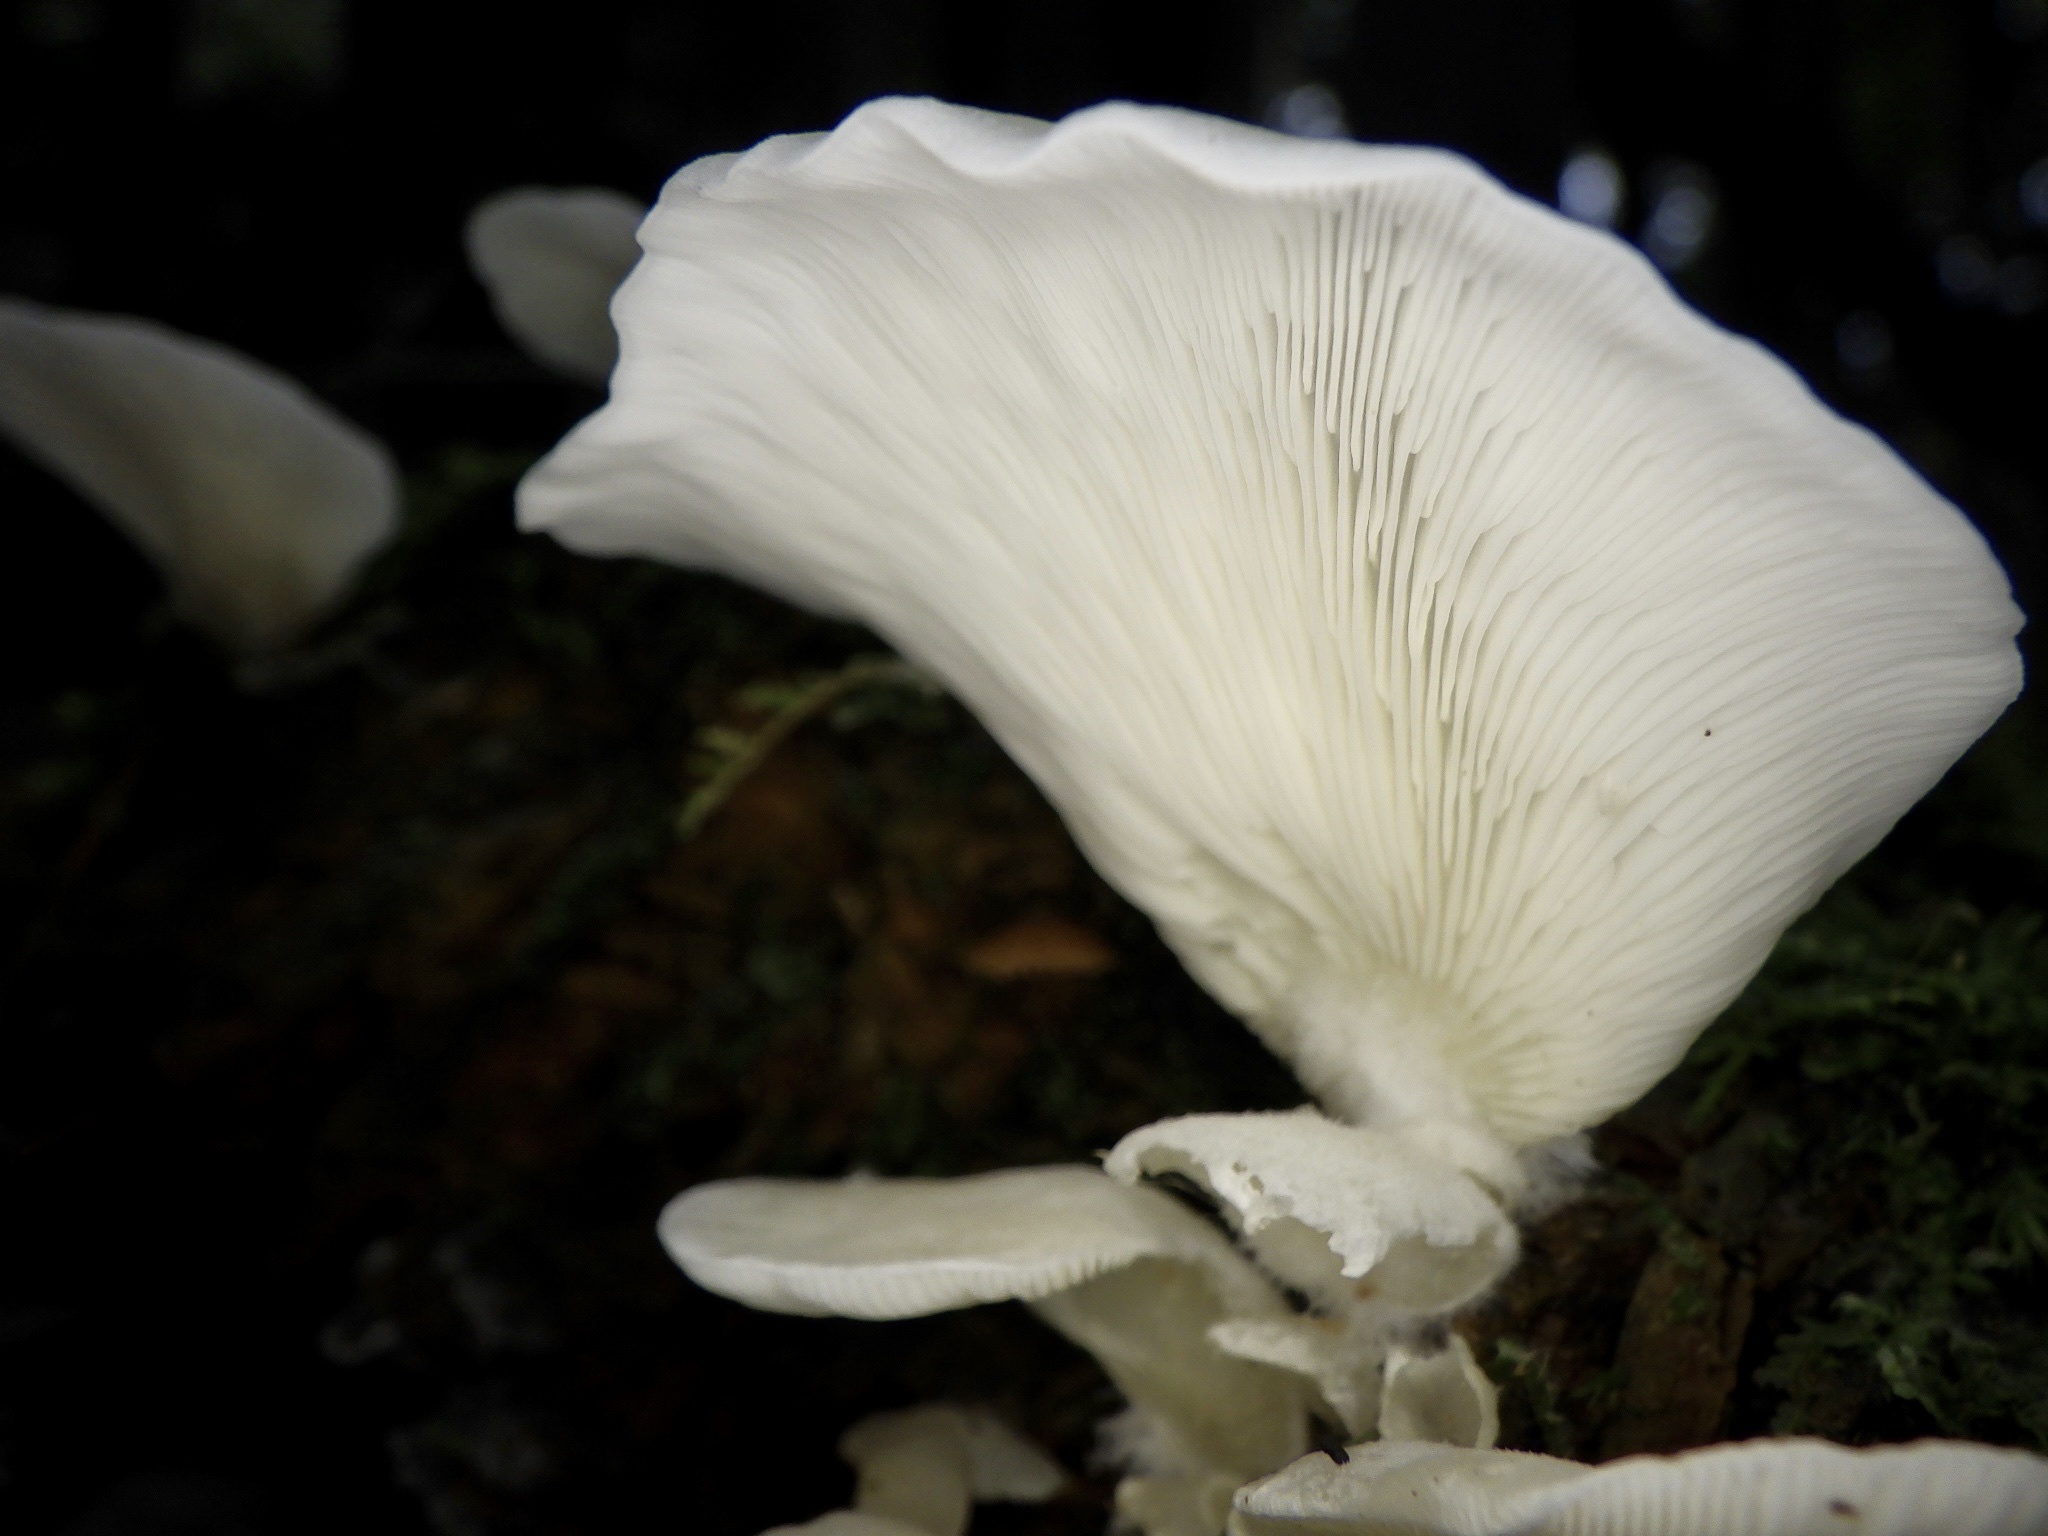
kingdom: Fungi
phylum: Basidiomycota
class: Agaricomycetes
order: Agaricales
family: Marasmiaceae
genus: Pleurocybella
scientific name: Pleurocybella porrigens
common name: Angel's wings
